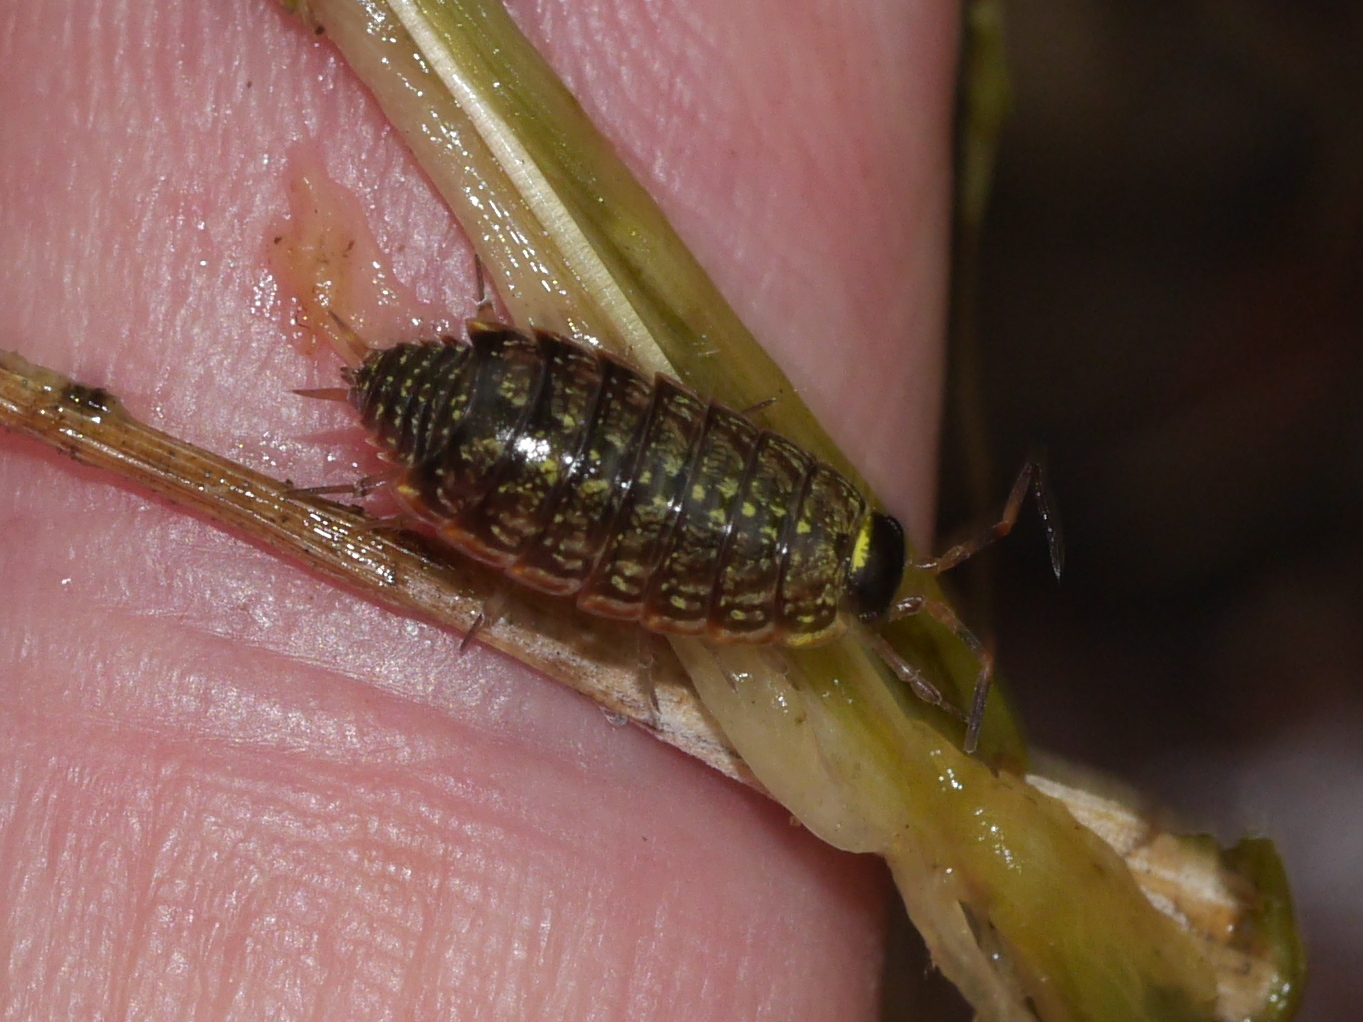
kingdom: Animalia
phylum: Arthropoda
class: Malacostraca
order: Isopoda
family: Philosciidae
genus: Philoscia
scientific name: Philoscia muscorum
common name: Common striped woodlouse
